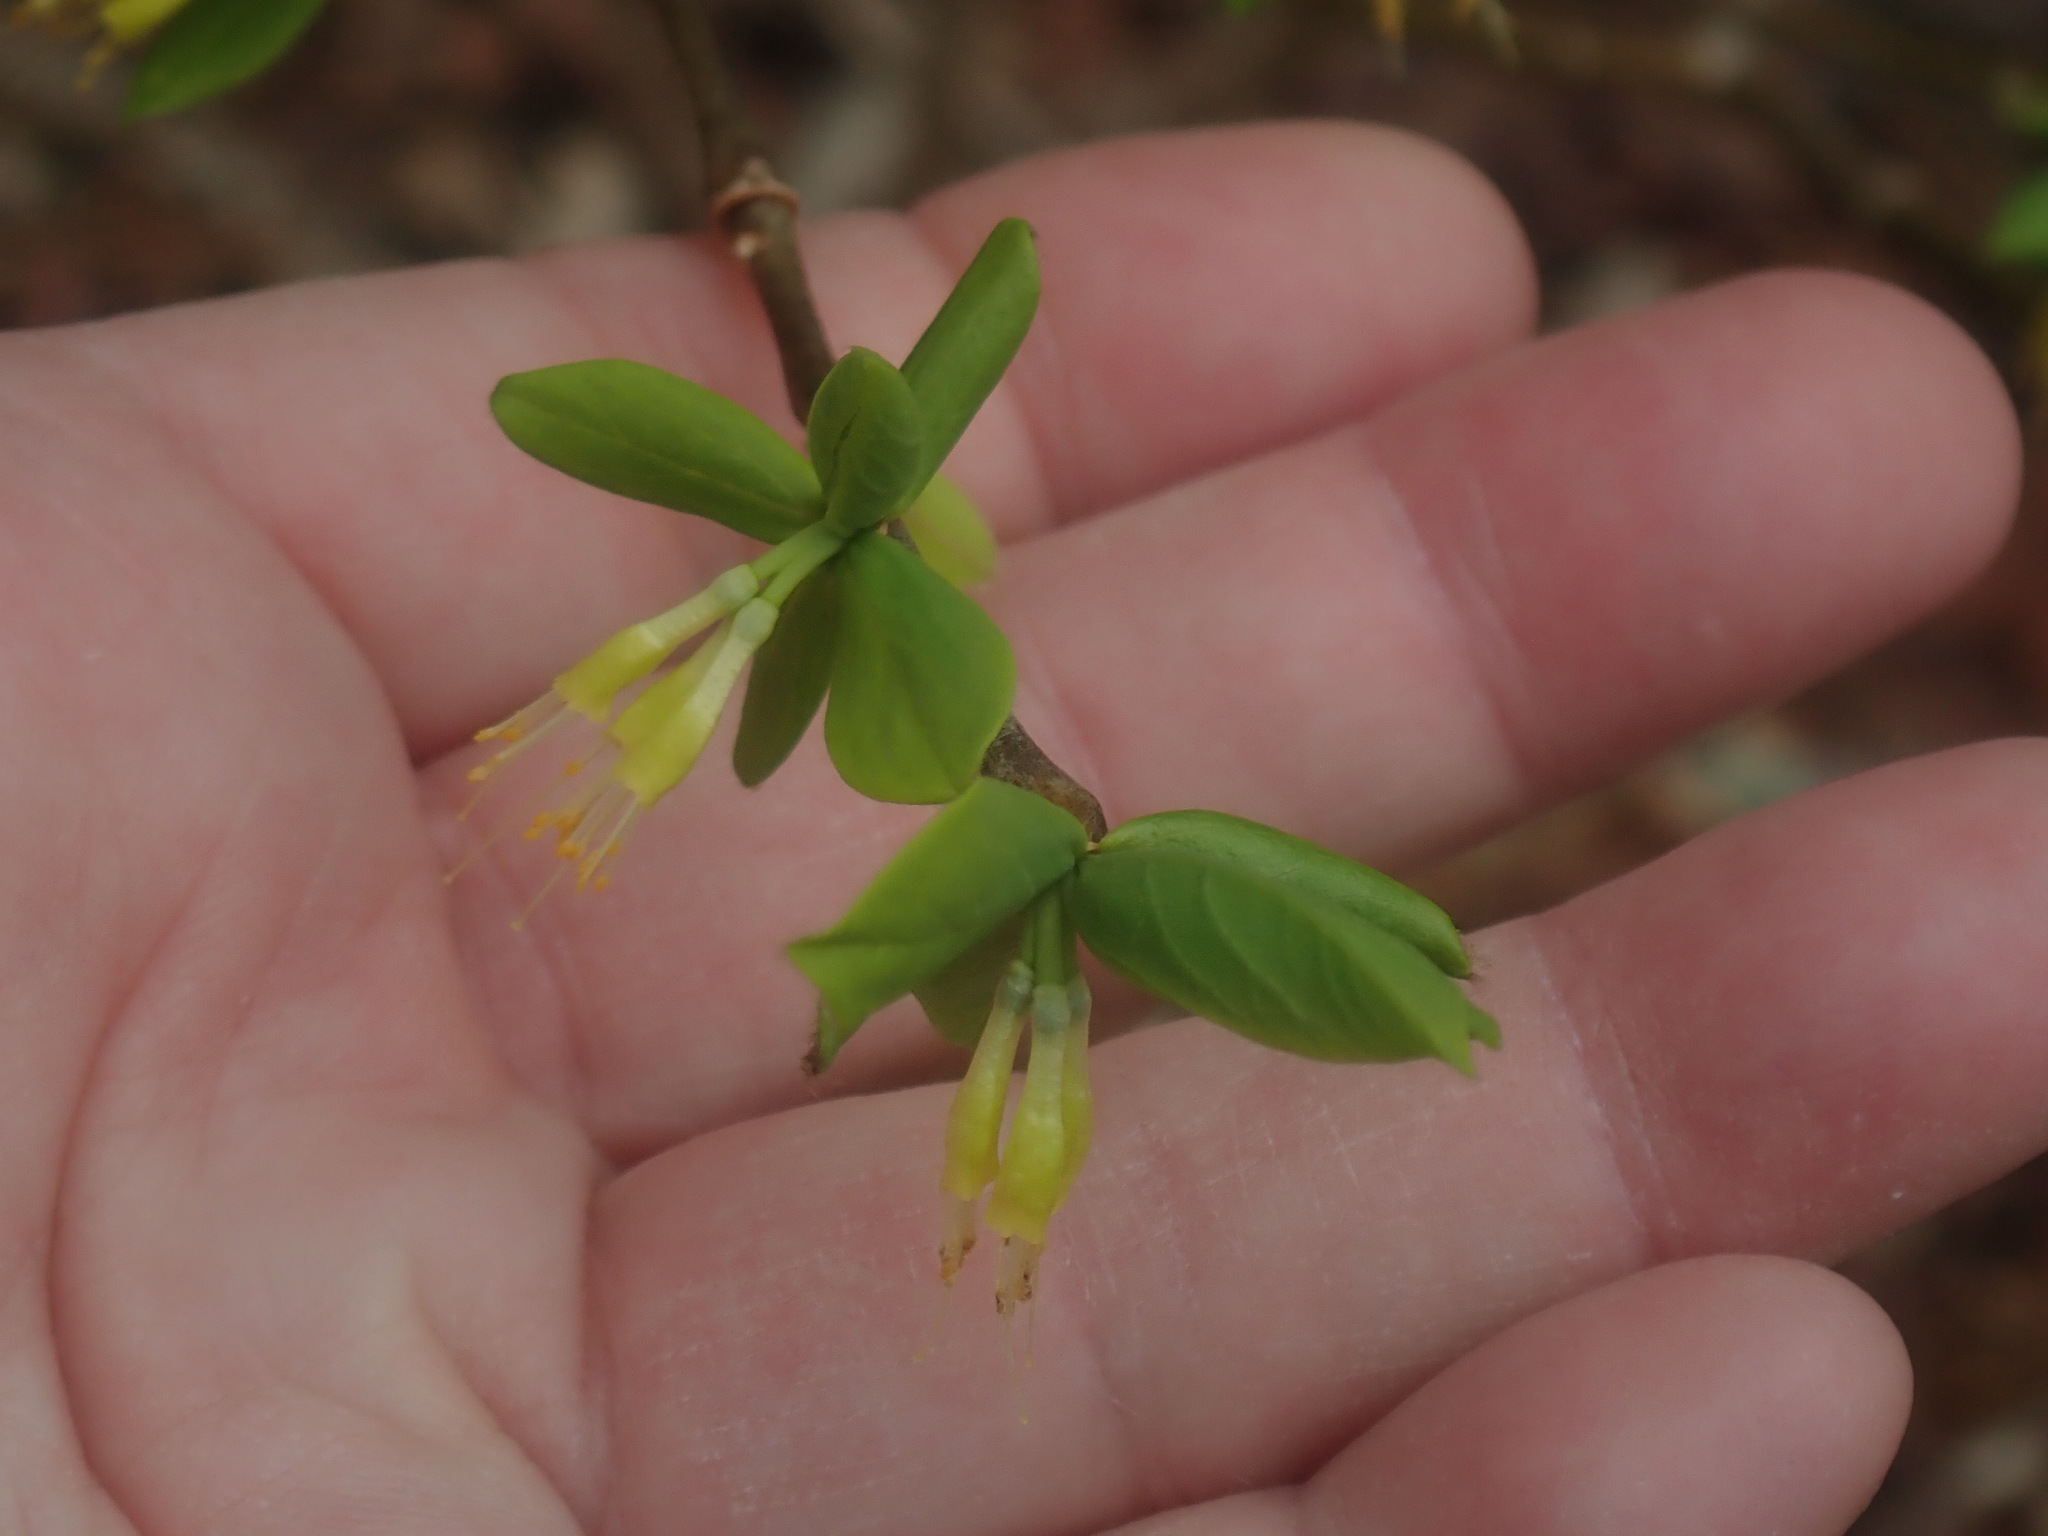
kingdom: Plantae
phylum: Tracheophyta
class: Magnoliopsida
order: Malvales
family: Thymelaeaceae
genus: Dirca
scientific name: Dirca palustris
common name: Leatherwood
